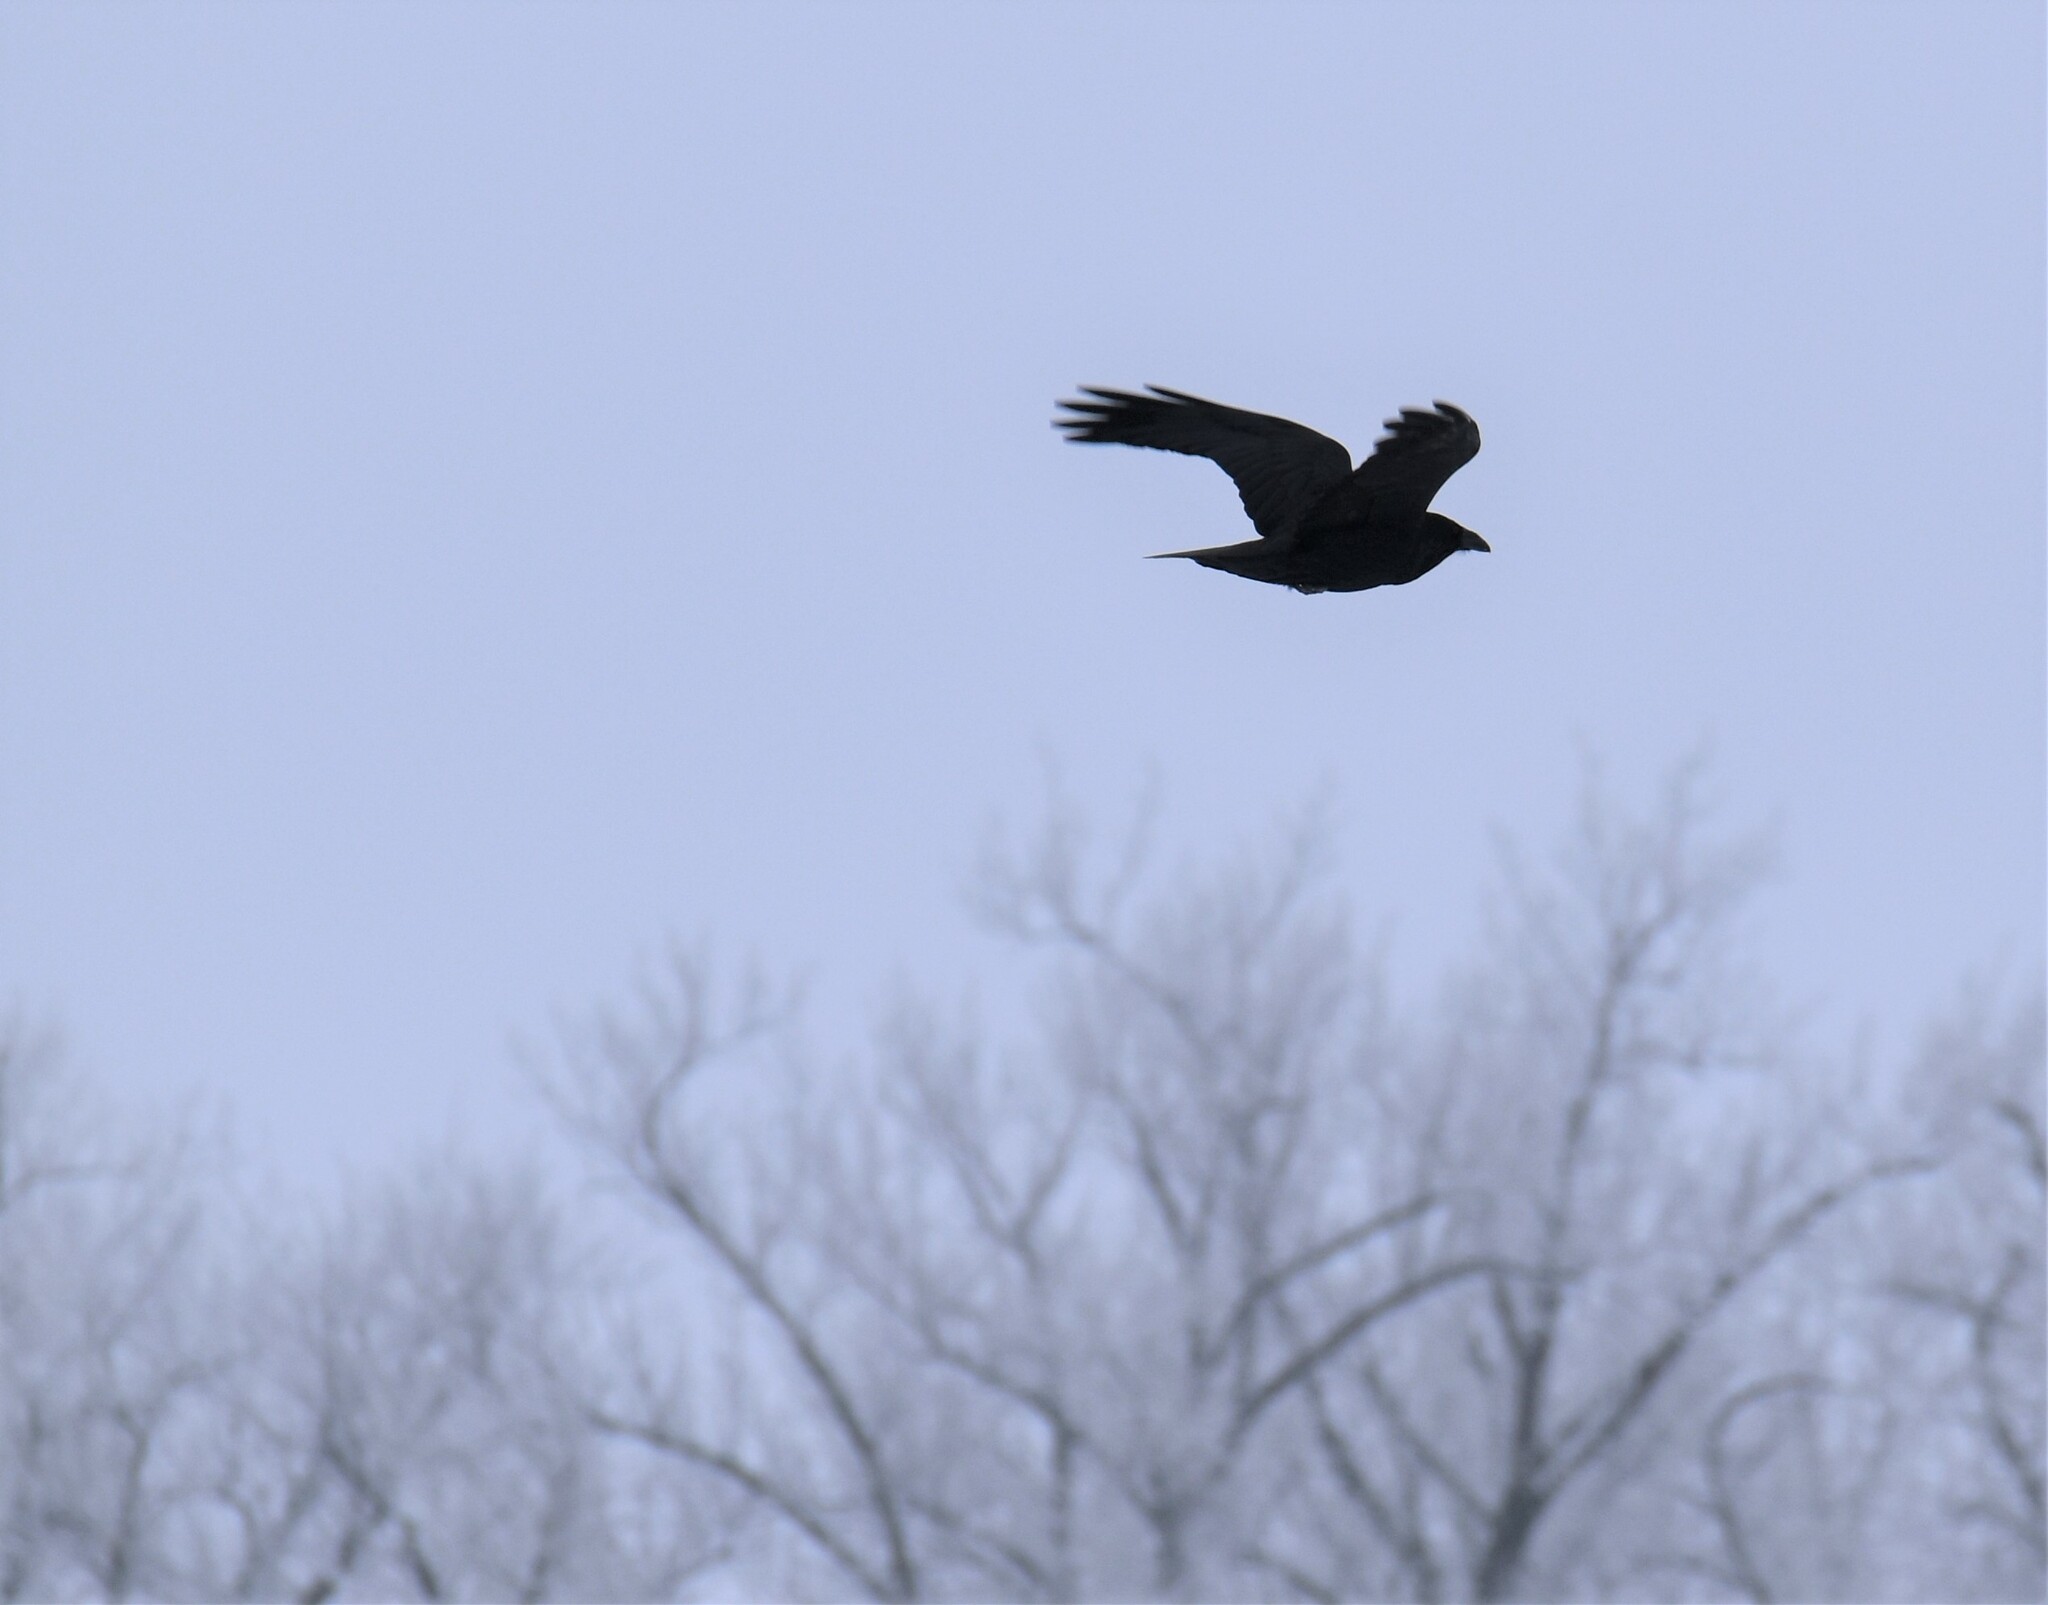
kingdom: Animalia
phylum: Chordata
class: Aves
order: Passeriformes
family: Corvidae
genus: Corvus
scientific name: Corvus corax
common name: Common raven
